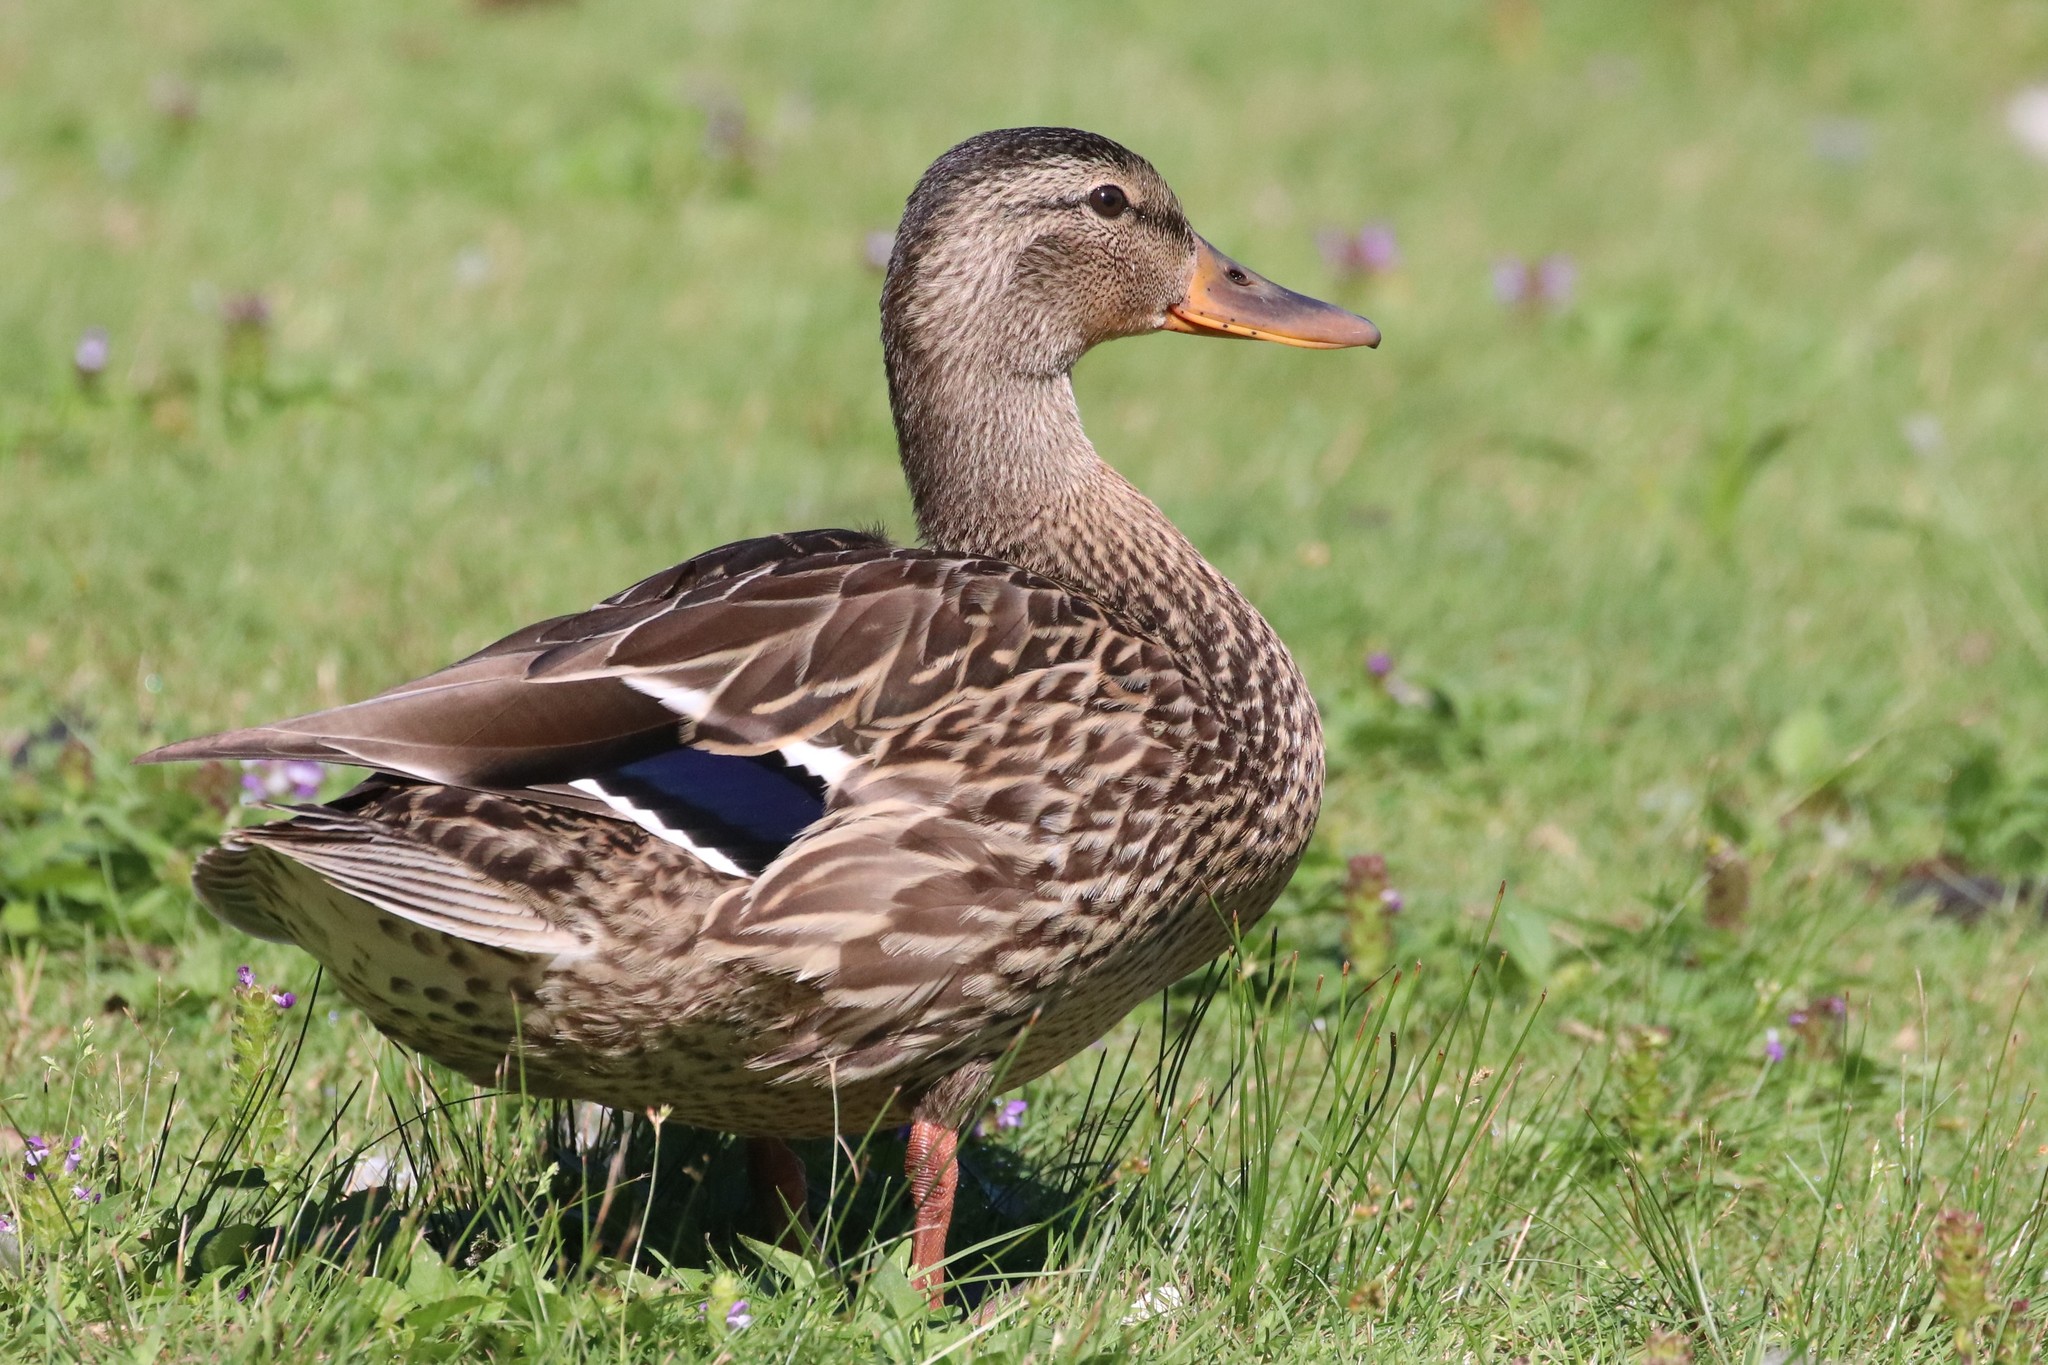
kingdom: Animalia
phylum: Chordata
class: Aves
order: Anseriformes
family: Anatidae
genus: Anas
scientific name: Anas platyrhynchos
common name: Mallard
